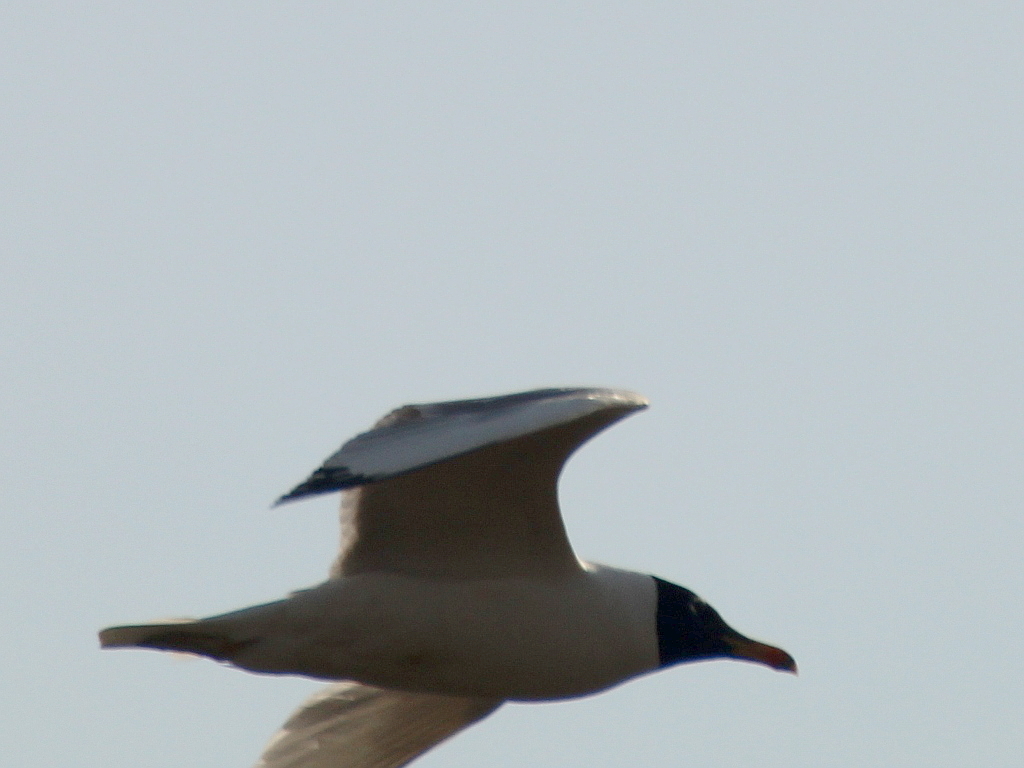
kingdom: Animalia
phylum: Chordata
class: Aves
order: Charadriiformes
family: Laridae
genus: Ichthyaetus
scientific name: Ichthyaetus ichthyaetus
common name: Pallas's gull
